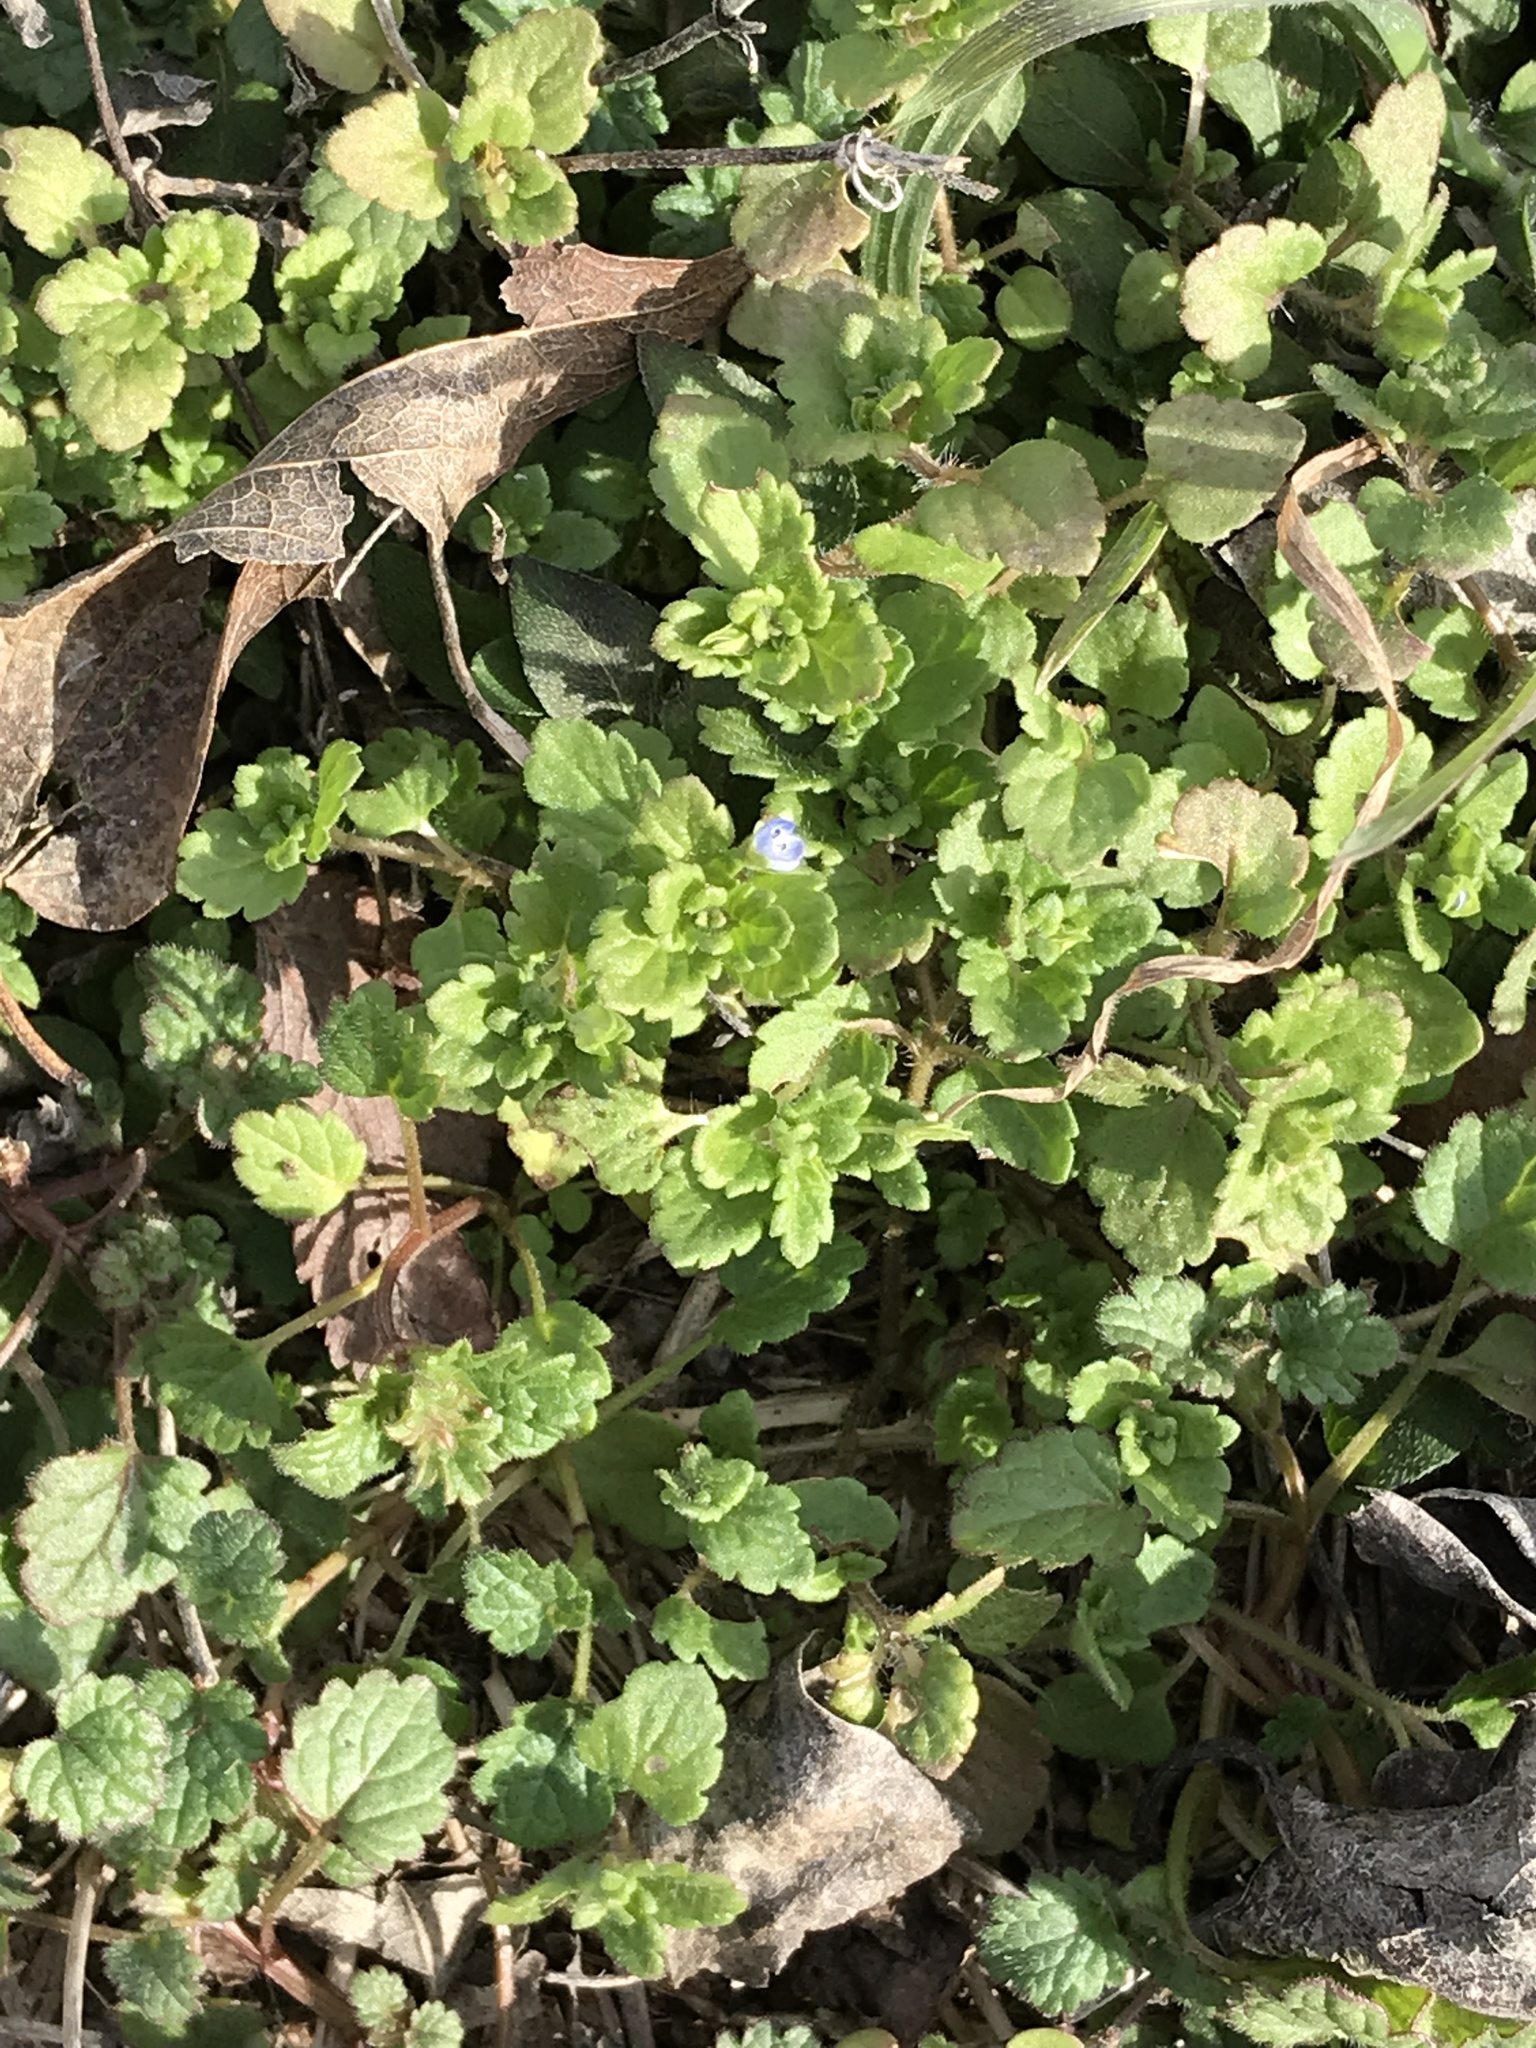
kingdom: Plantae
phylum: Tracheophyta
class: Magnoliopsida
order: Lamiales
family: Plantaginaceae
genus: Veronica
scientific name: Veronica polita
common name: Grey field-speedwell
